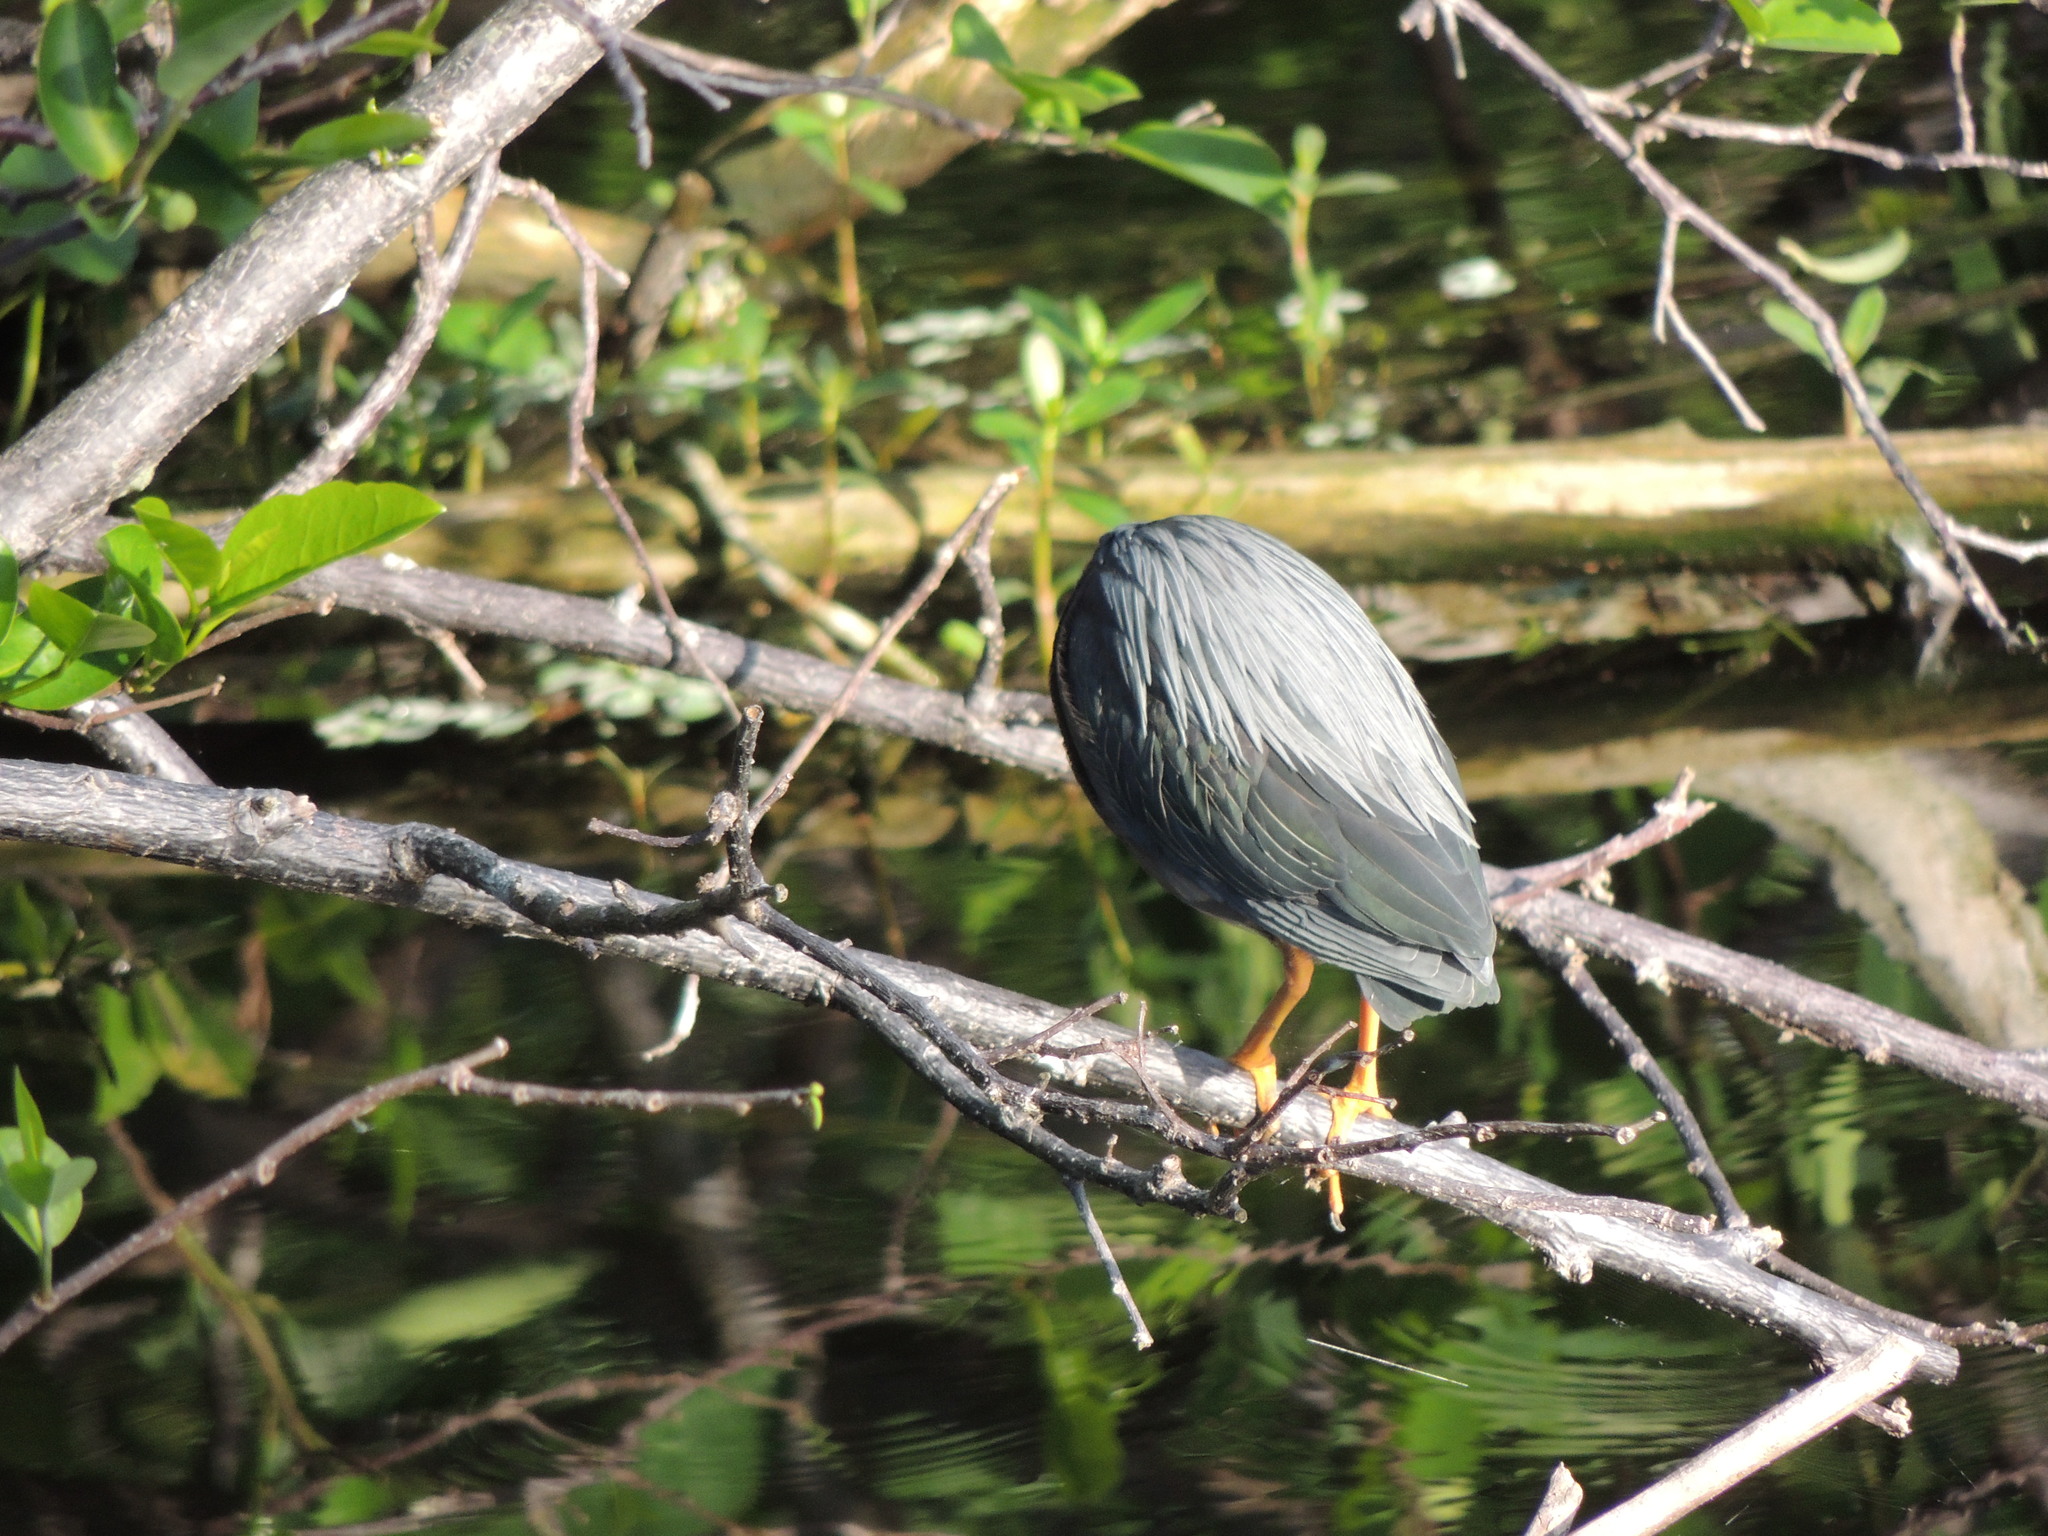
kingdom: Animalia
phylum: Chordata
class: Aves
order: Pelecaniformes
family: Ardeidae
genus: Butorides
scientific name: Butorides virescens
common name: Green heron
